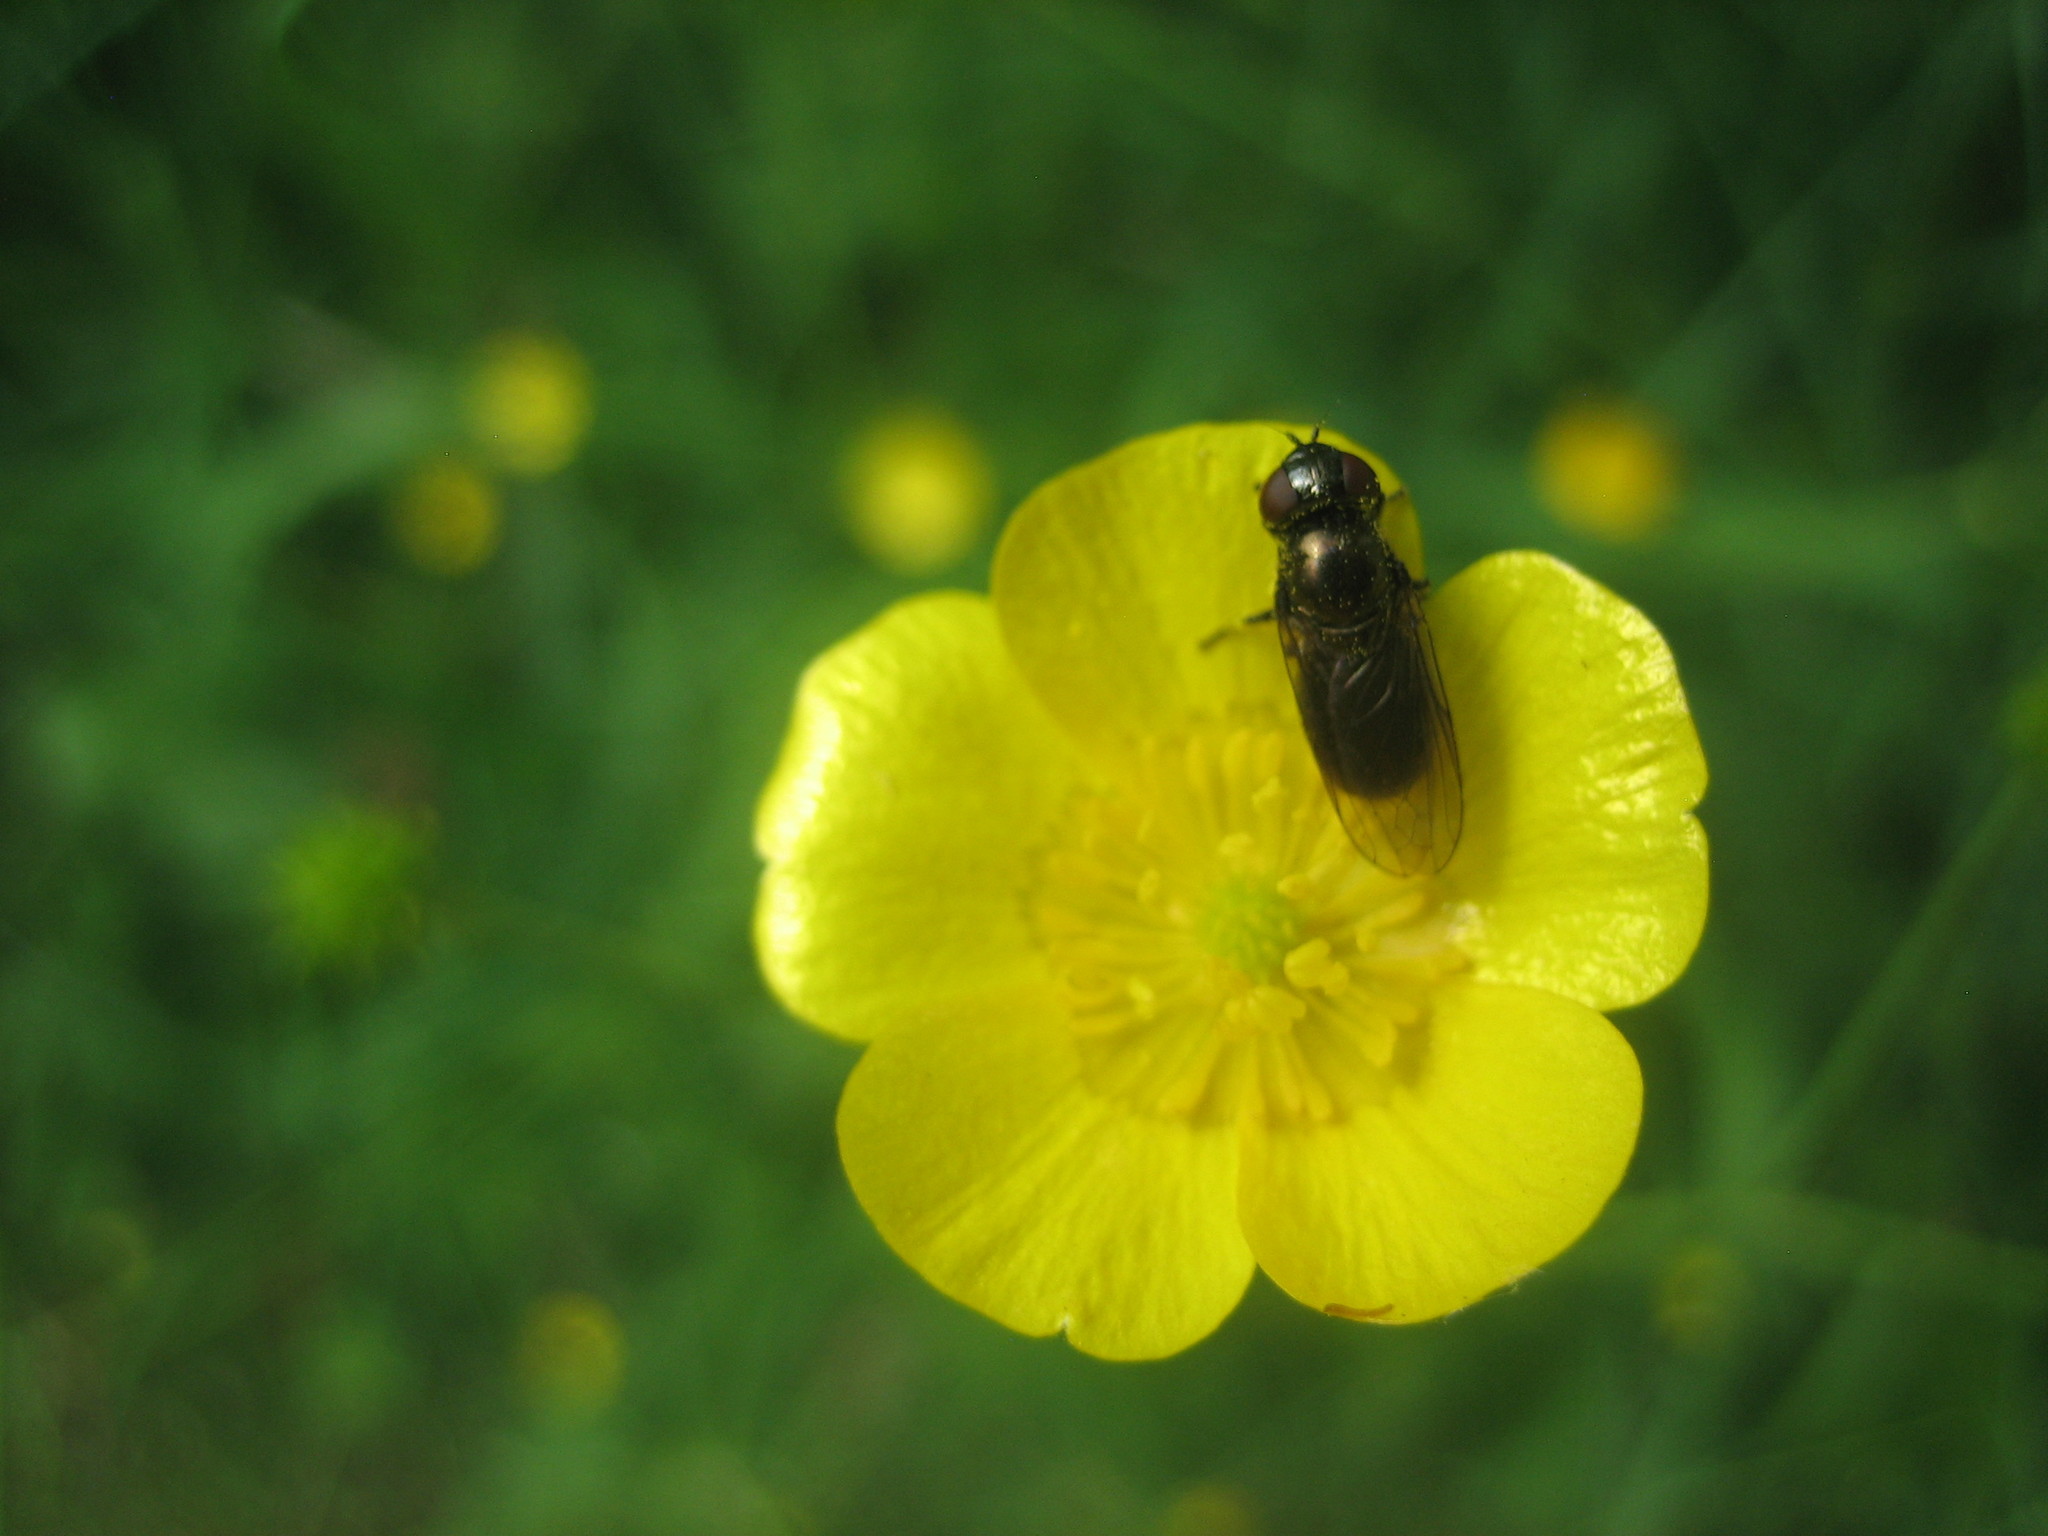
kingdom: Animalia
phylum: Arthropoda
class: Insecta
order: Diptera
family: Syrphidae
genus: Melanogaster
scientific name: Melanogaster
